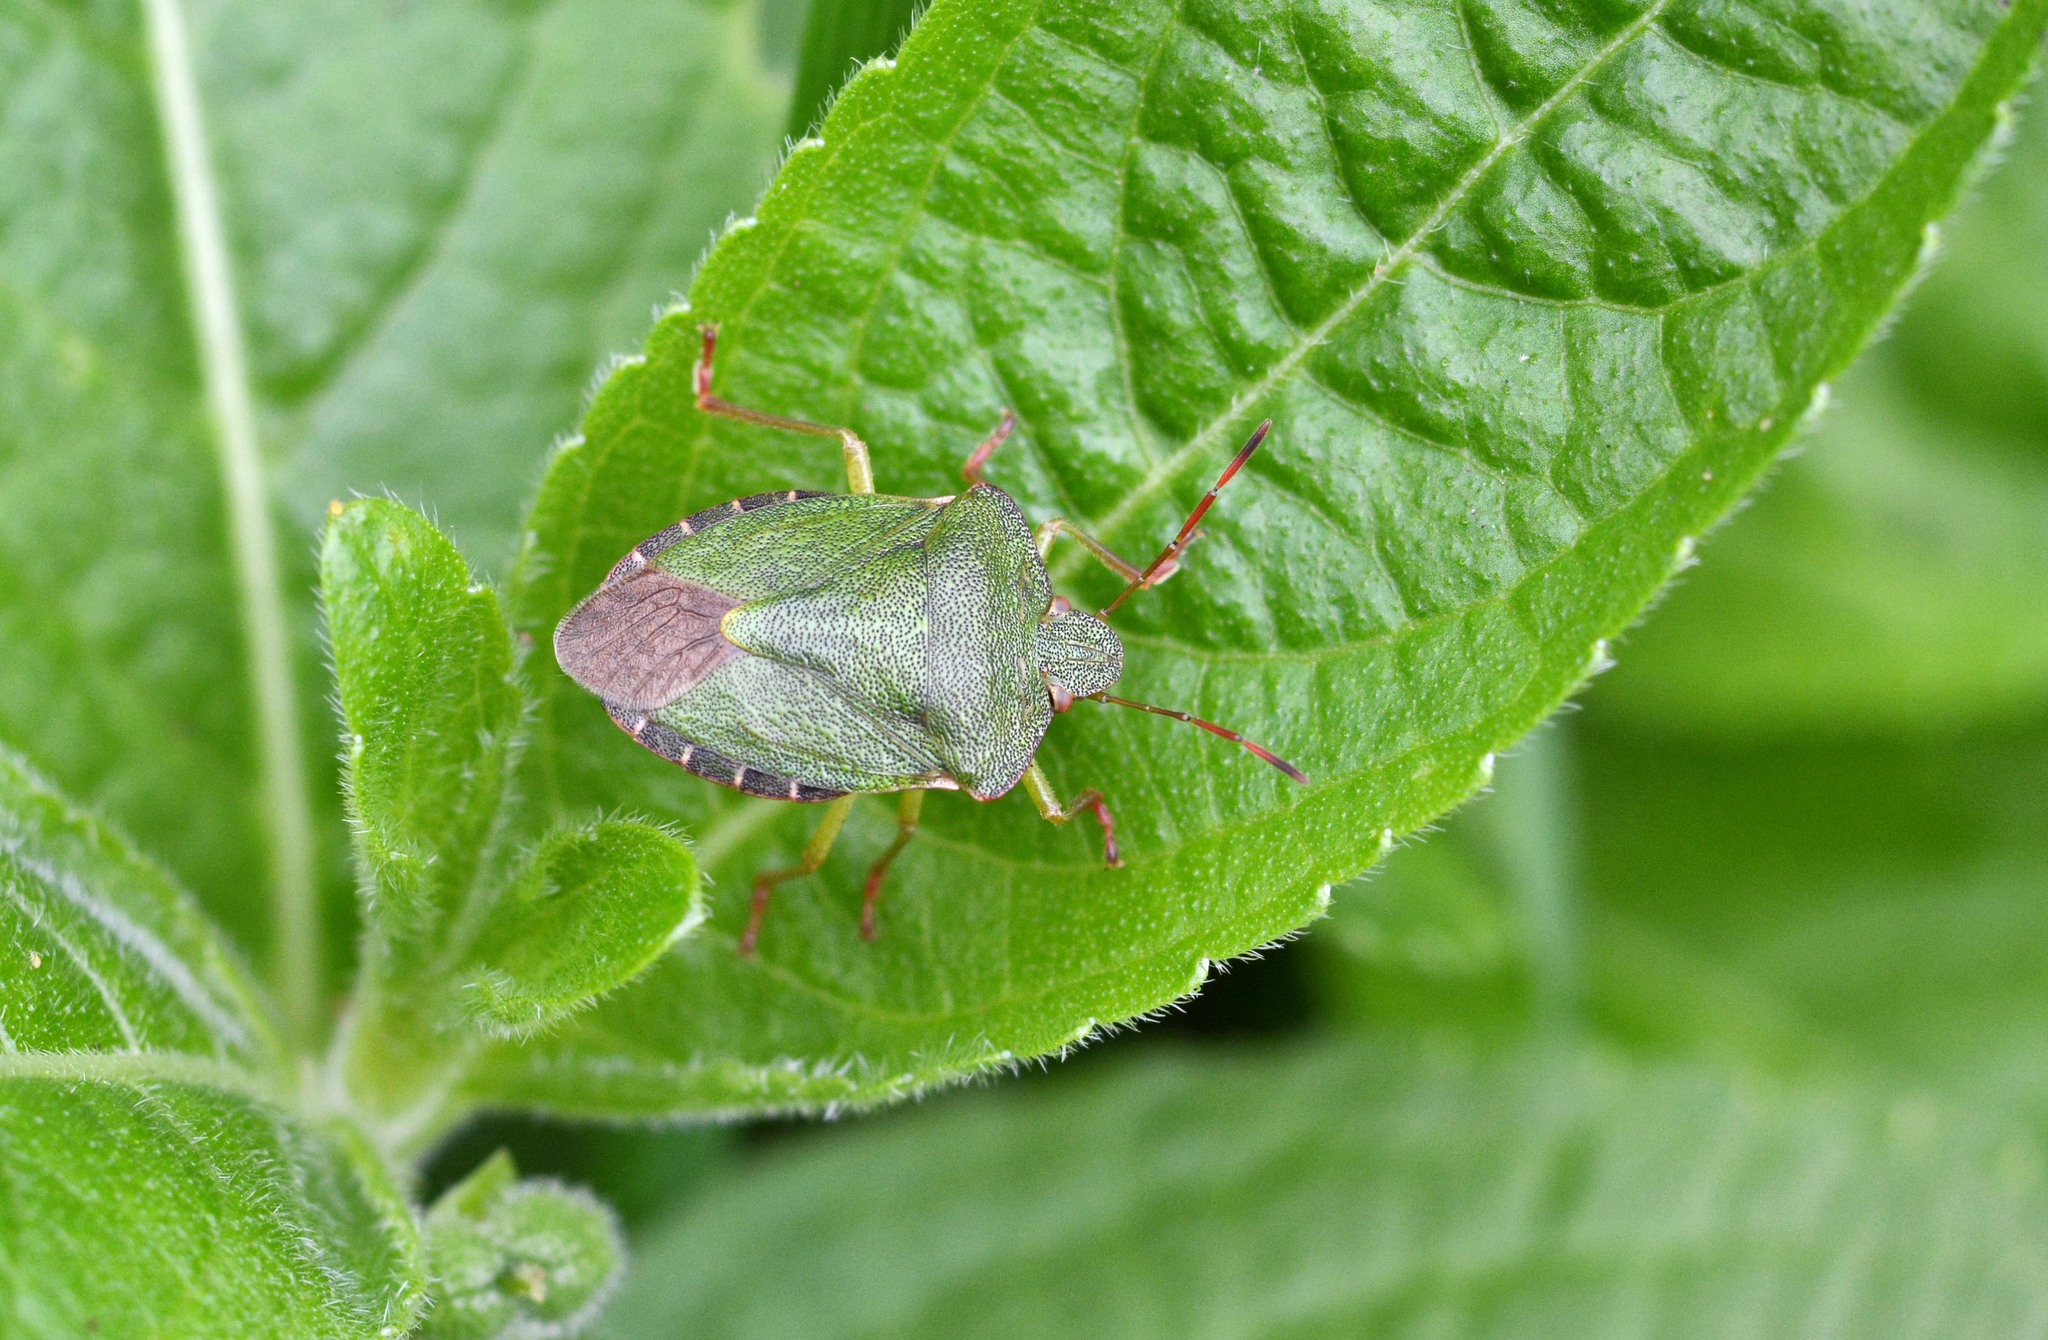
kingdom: Animalia
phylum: Arthropoda
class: Insecta
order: Hemiptera
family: Pentatomidae
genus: Palomena
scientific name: Palomena prasina
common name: Green shieldbug
